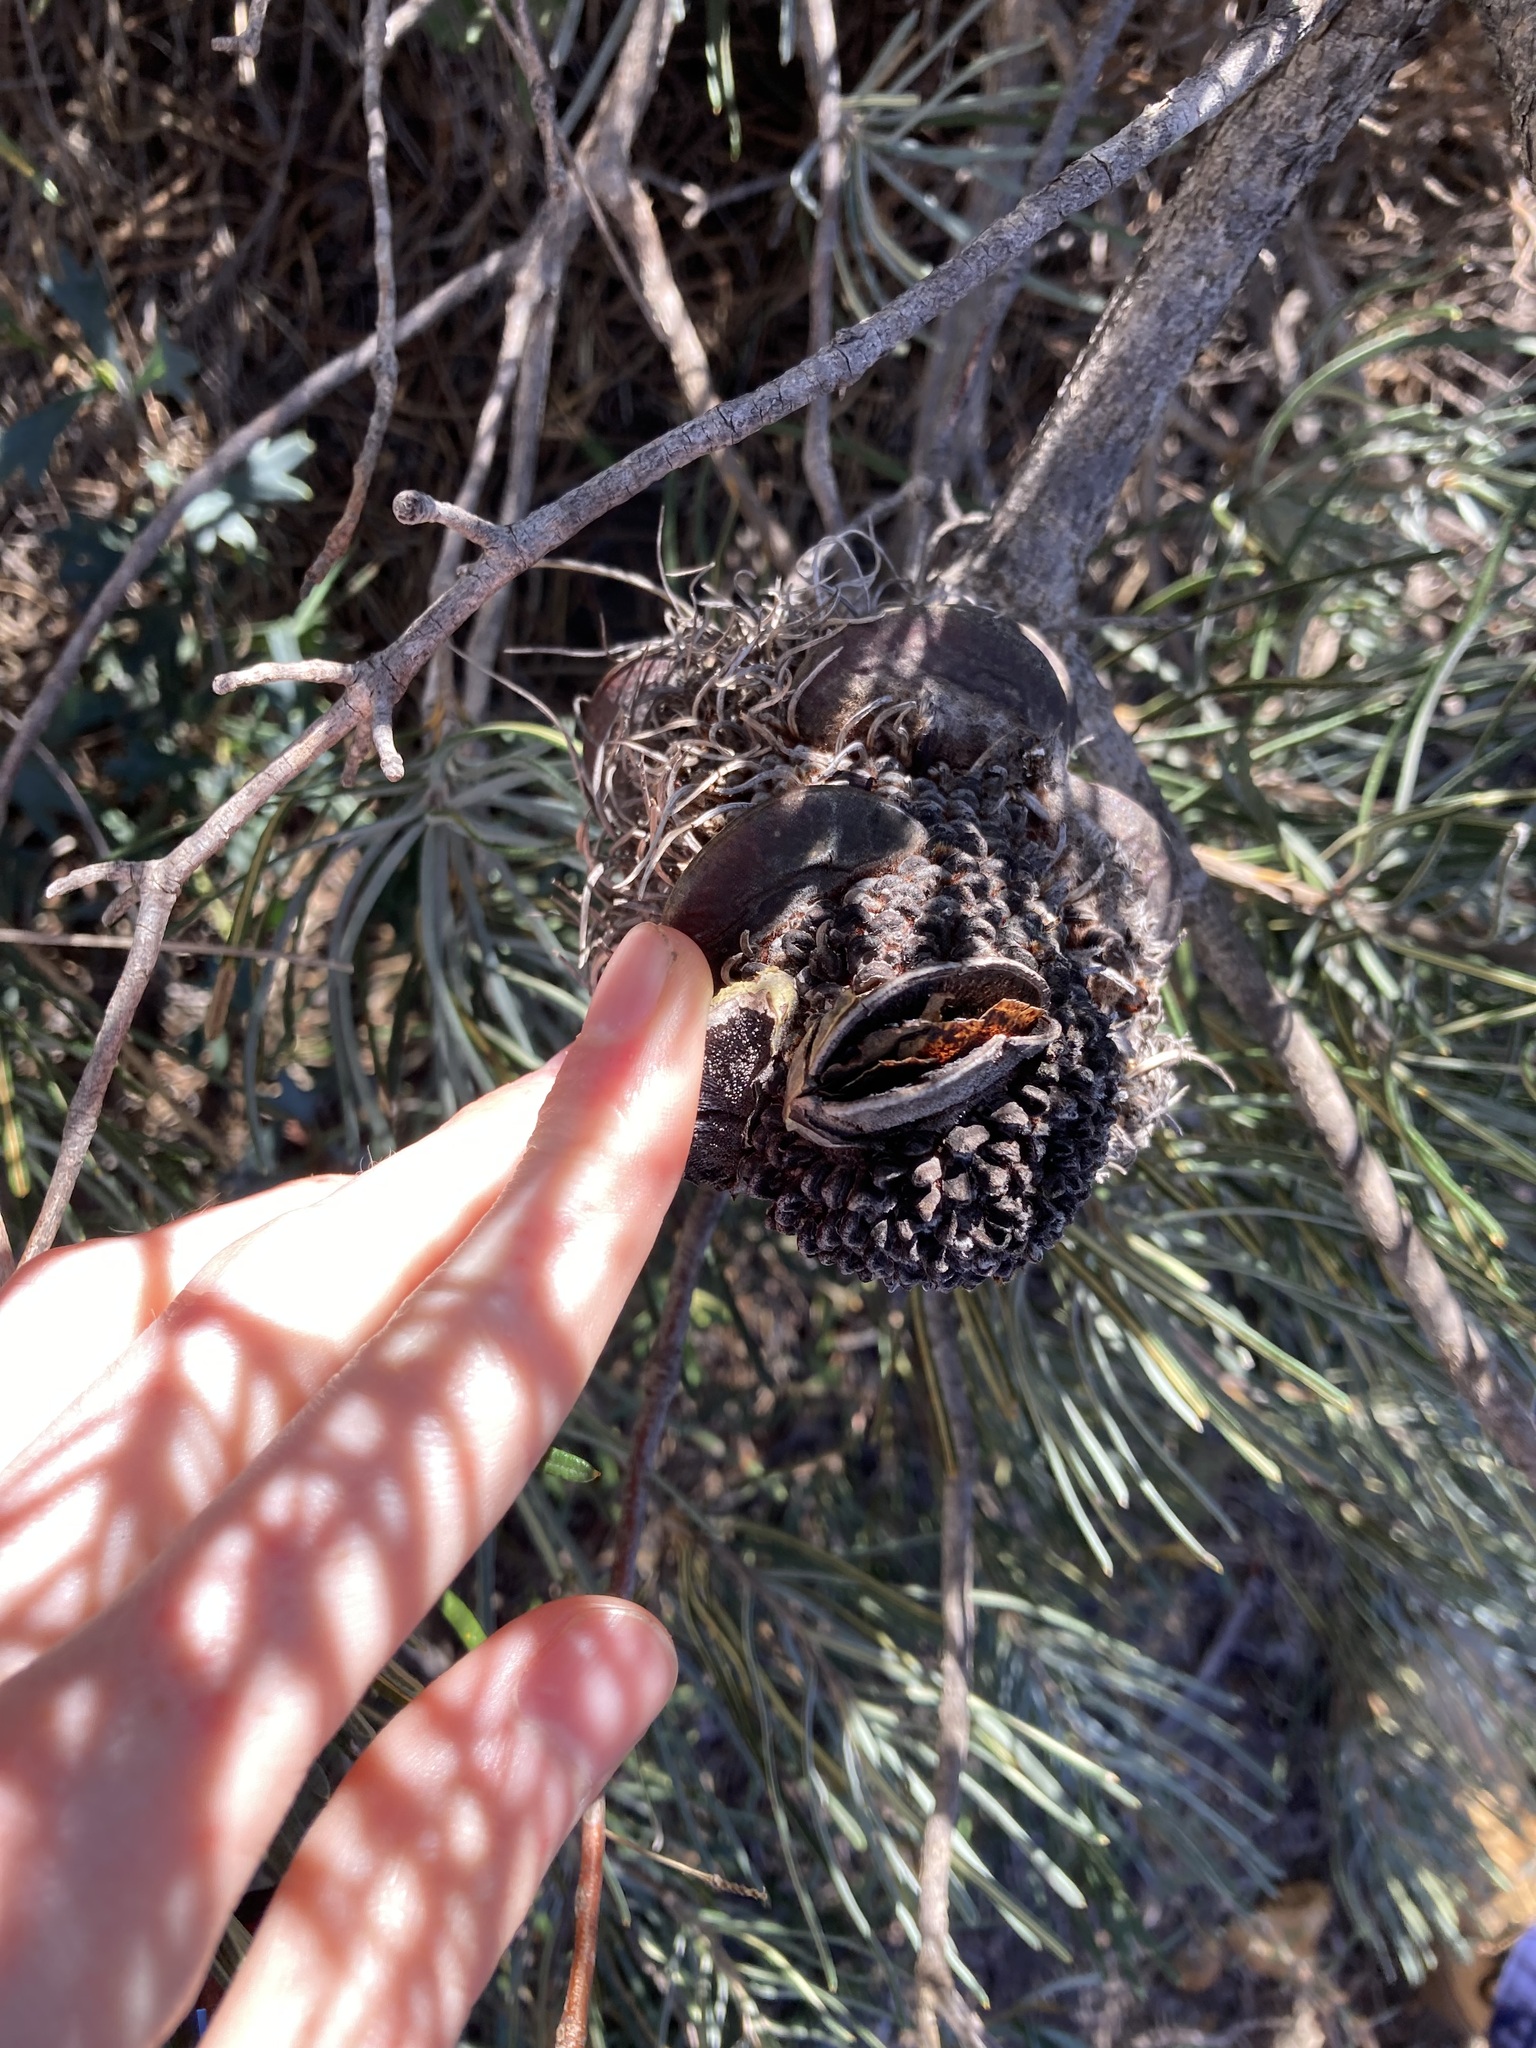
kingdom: Plantae
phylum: Tracheophyta
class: Magnoliopsida
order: Proteales
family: Proteaceae
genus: Banksia
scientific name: Banksia grossa
